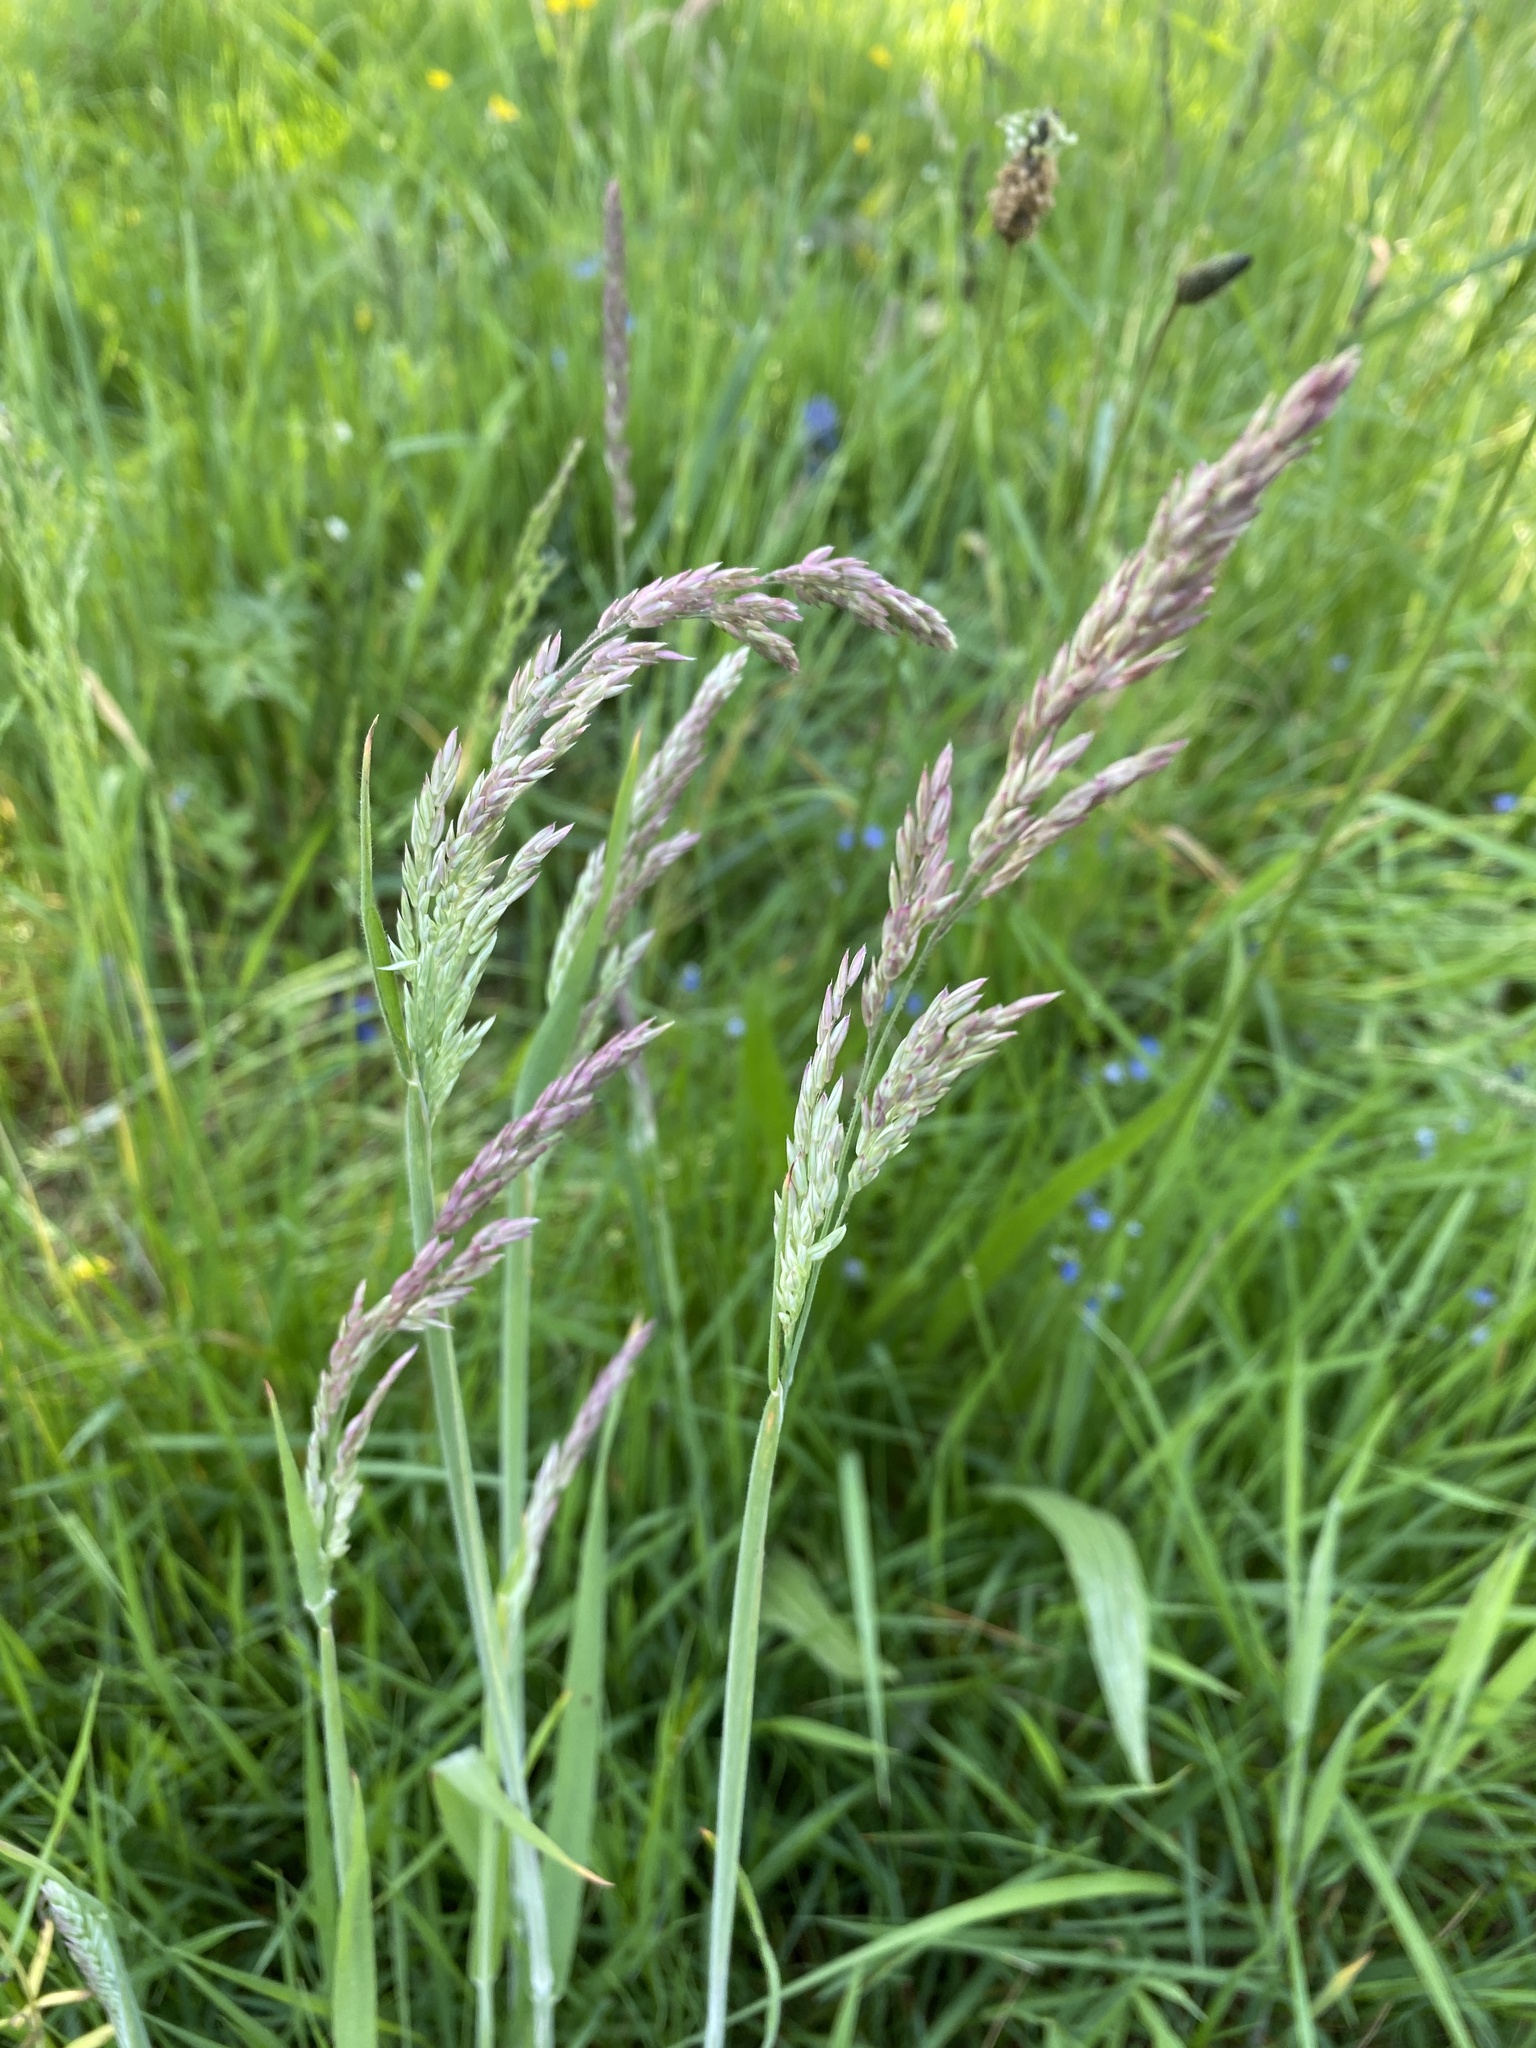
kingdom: Plantae
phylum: Tracheophyta
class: Liliopsida
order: Poales
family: Poaceae
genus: Holcus
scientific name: Holcus lanatus
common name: Yorkshire-fog
